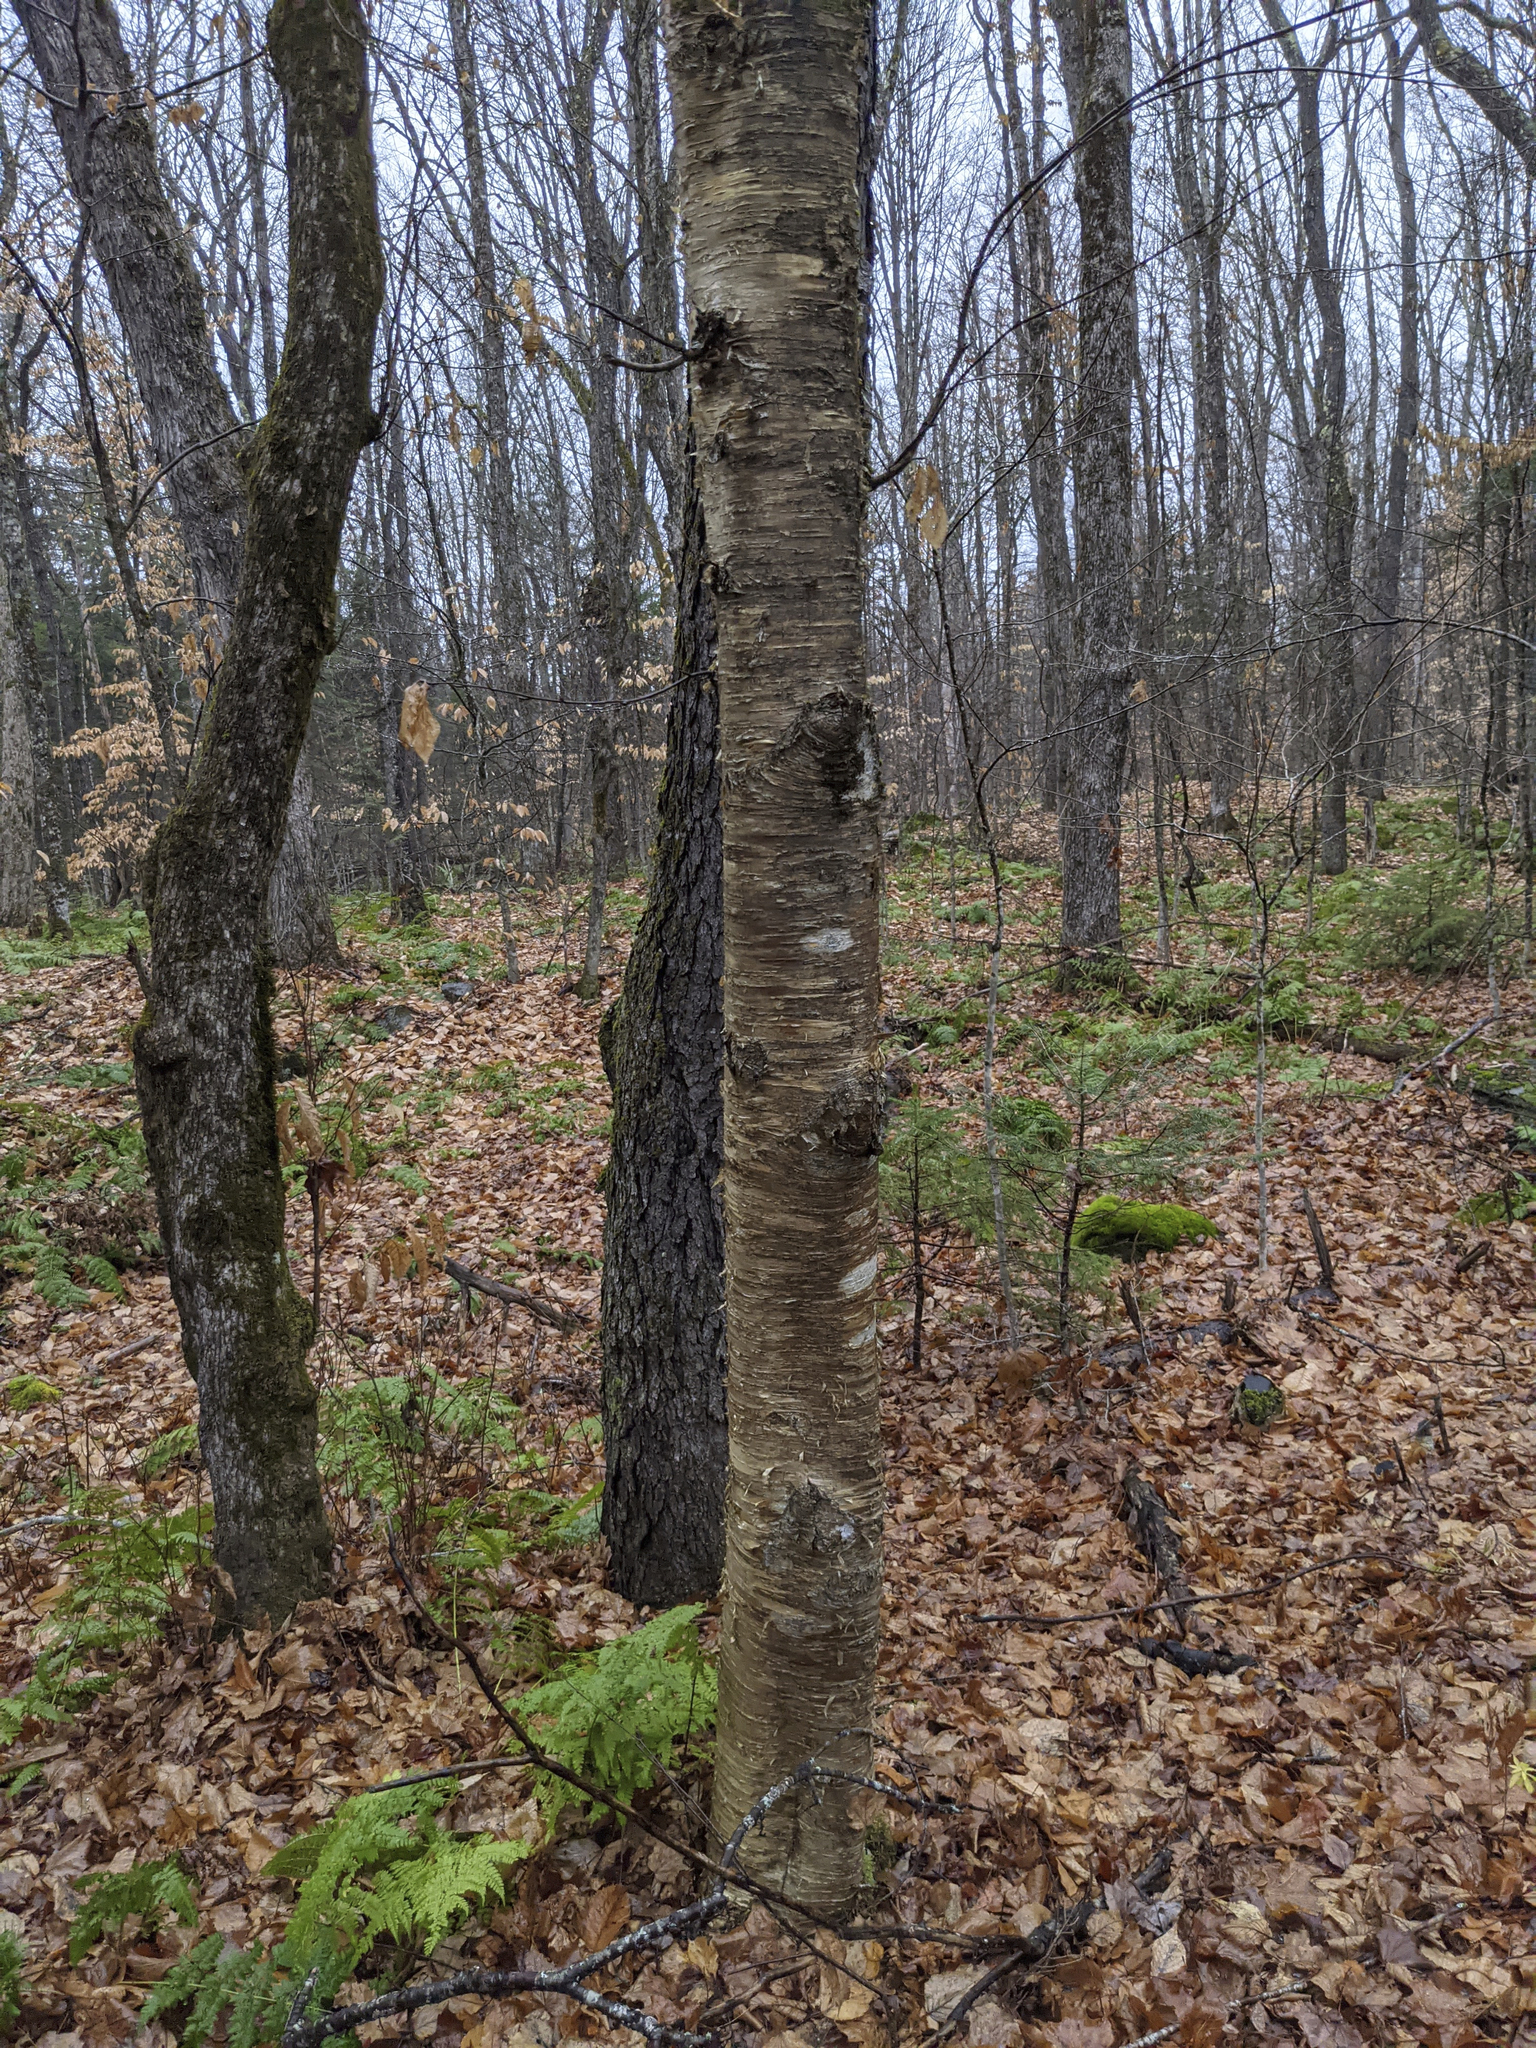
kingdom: Plantae
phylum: Tracheophyta
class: Magnoliopsida
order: Fagales
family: Betulaceae
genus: Betula
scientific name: Betula alleghaniensis
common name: Yellow birch
